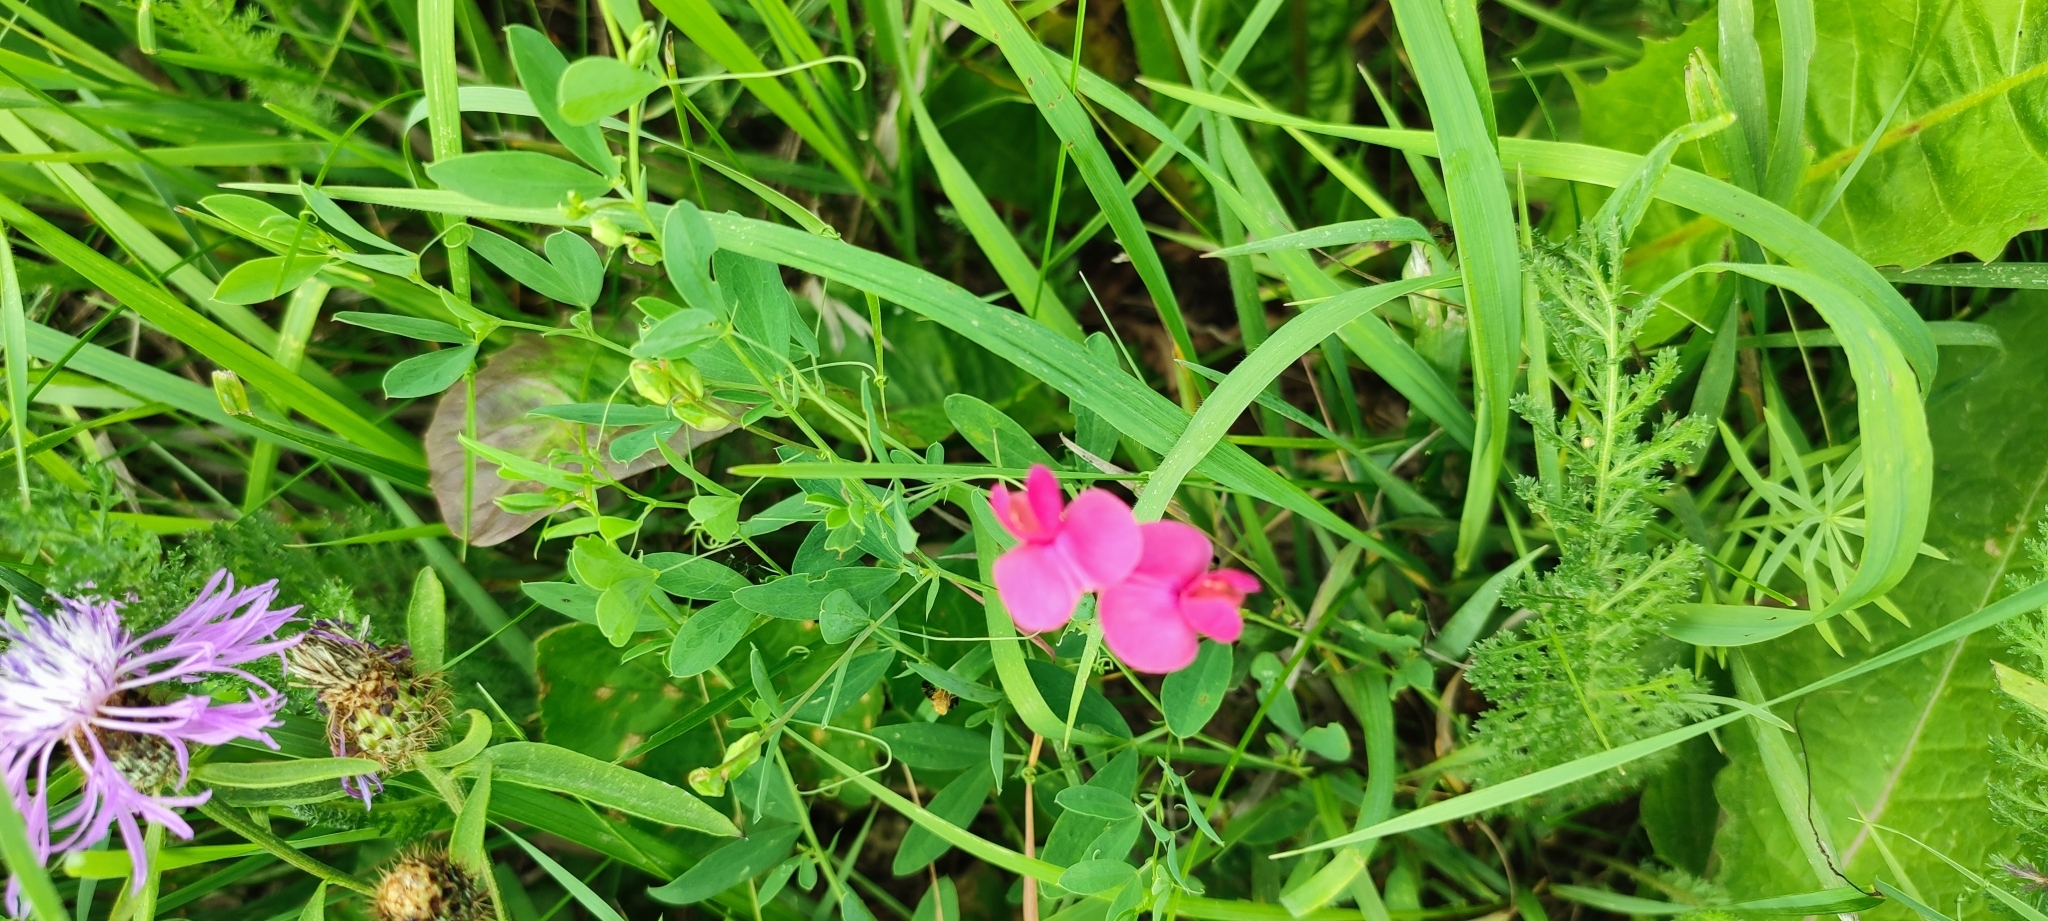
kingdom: Plantae
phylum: Tracheophyta
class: Magnoliopsida
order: Fabales
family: Fabaceae
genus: Lathyrus
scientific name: Lathyrus tuberosus
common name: Tuberous pea
